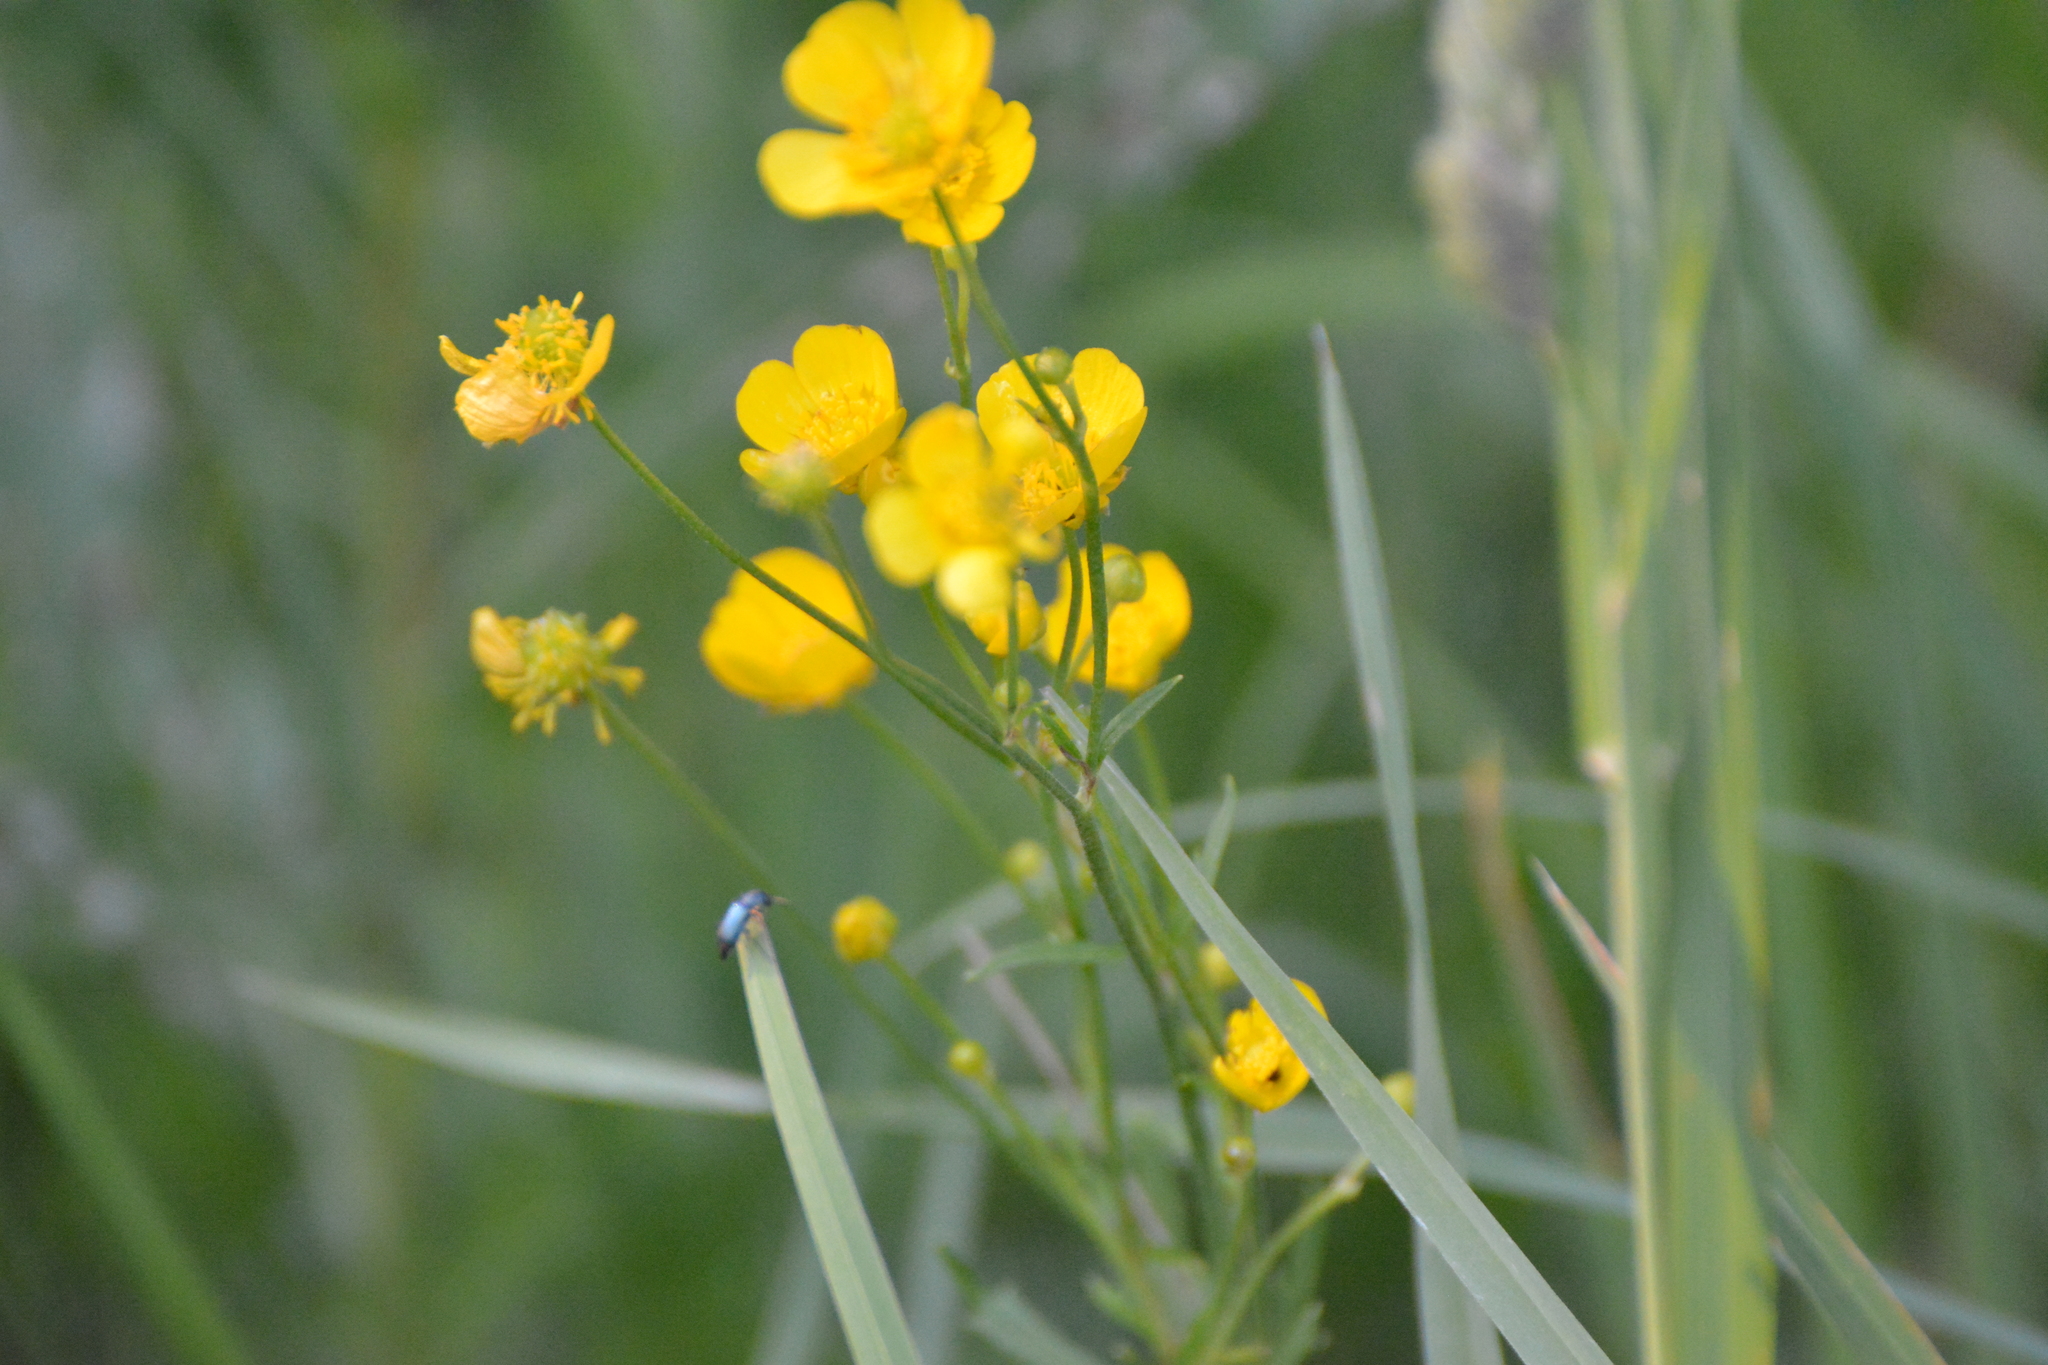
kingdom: Plantae
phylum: Tracheophyta
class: Magnoliopsida
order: Ranunculales
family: Ranunculaceae
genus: Ranunculus
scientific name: Ranunculus acris
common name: Meadow buttercup
